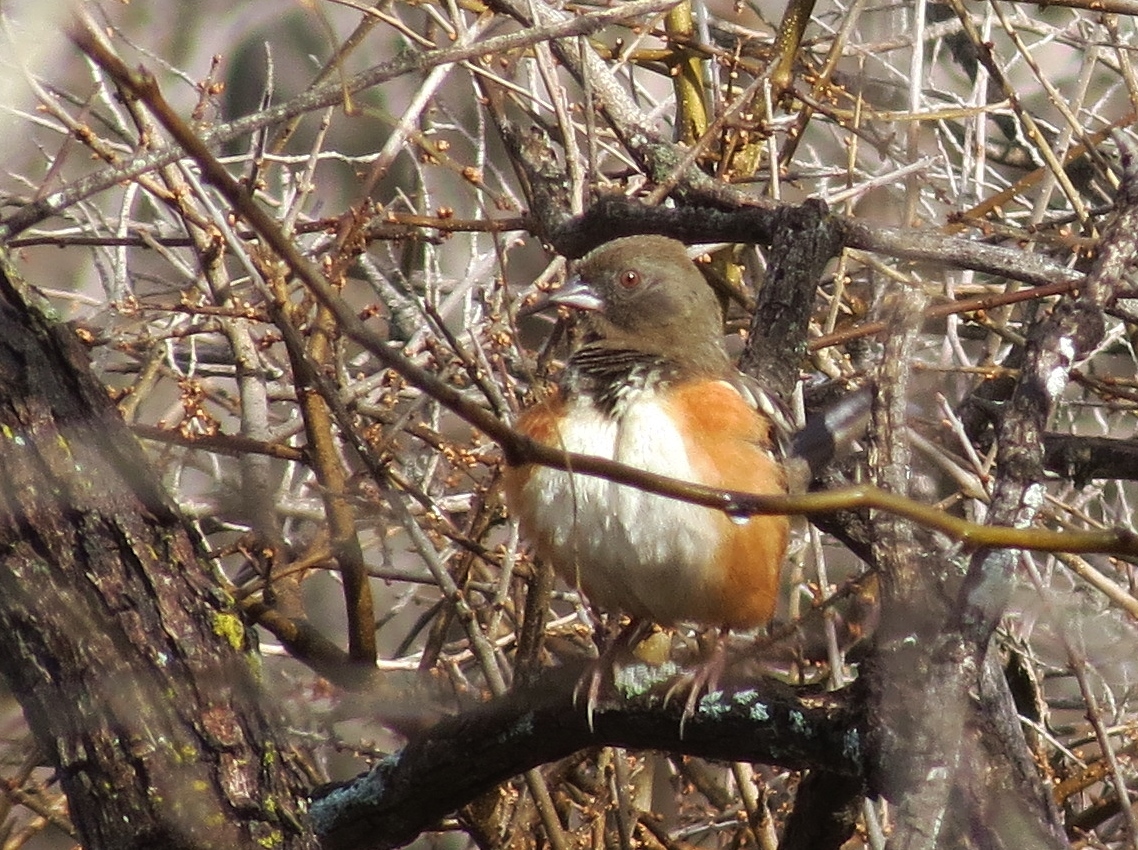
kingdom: Animalia
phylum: Chordata
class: Aves
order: Passeriformes
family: Passerellidae
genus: Pipilo
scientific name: Pipilo maculatus
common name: Spotted towhee
